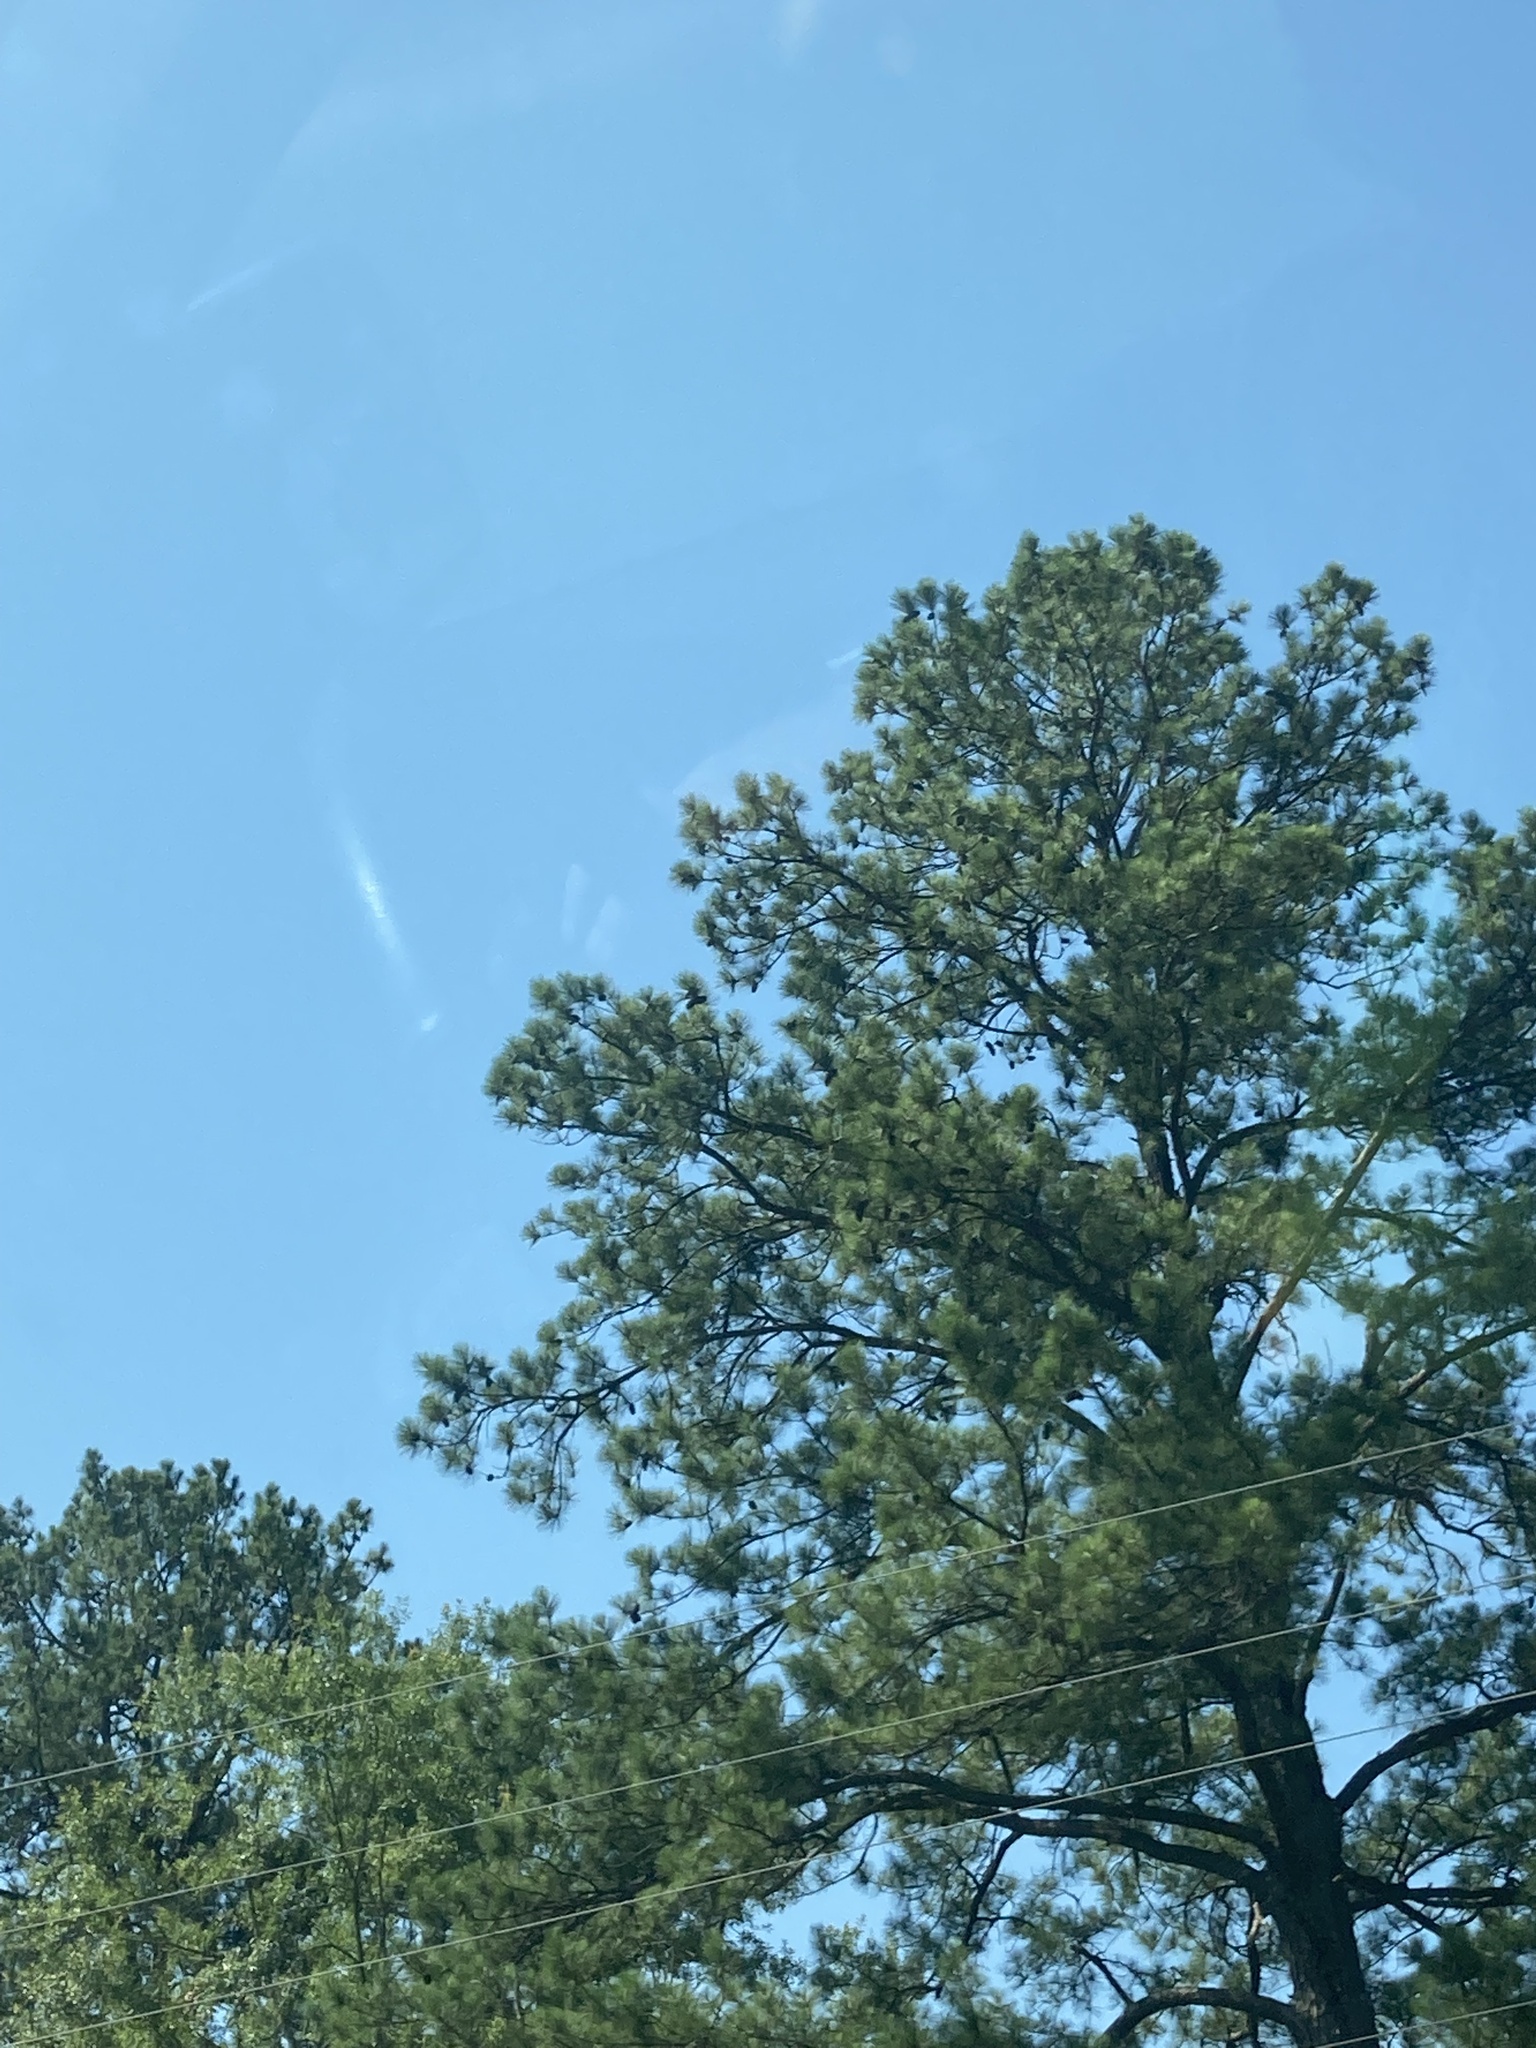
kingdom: Plantae
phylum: Tracheophyta
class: Pinopsida
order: Pinales
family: Pinaceae
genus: Pinus
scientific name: Pinus taeda
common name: Loblolly pine
